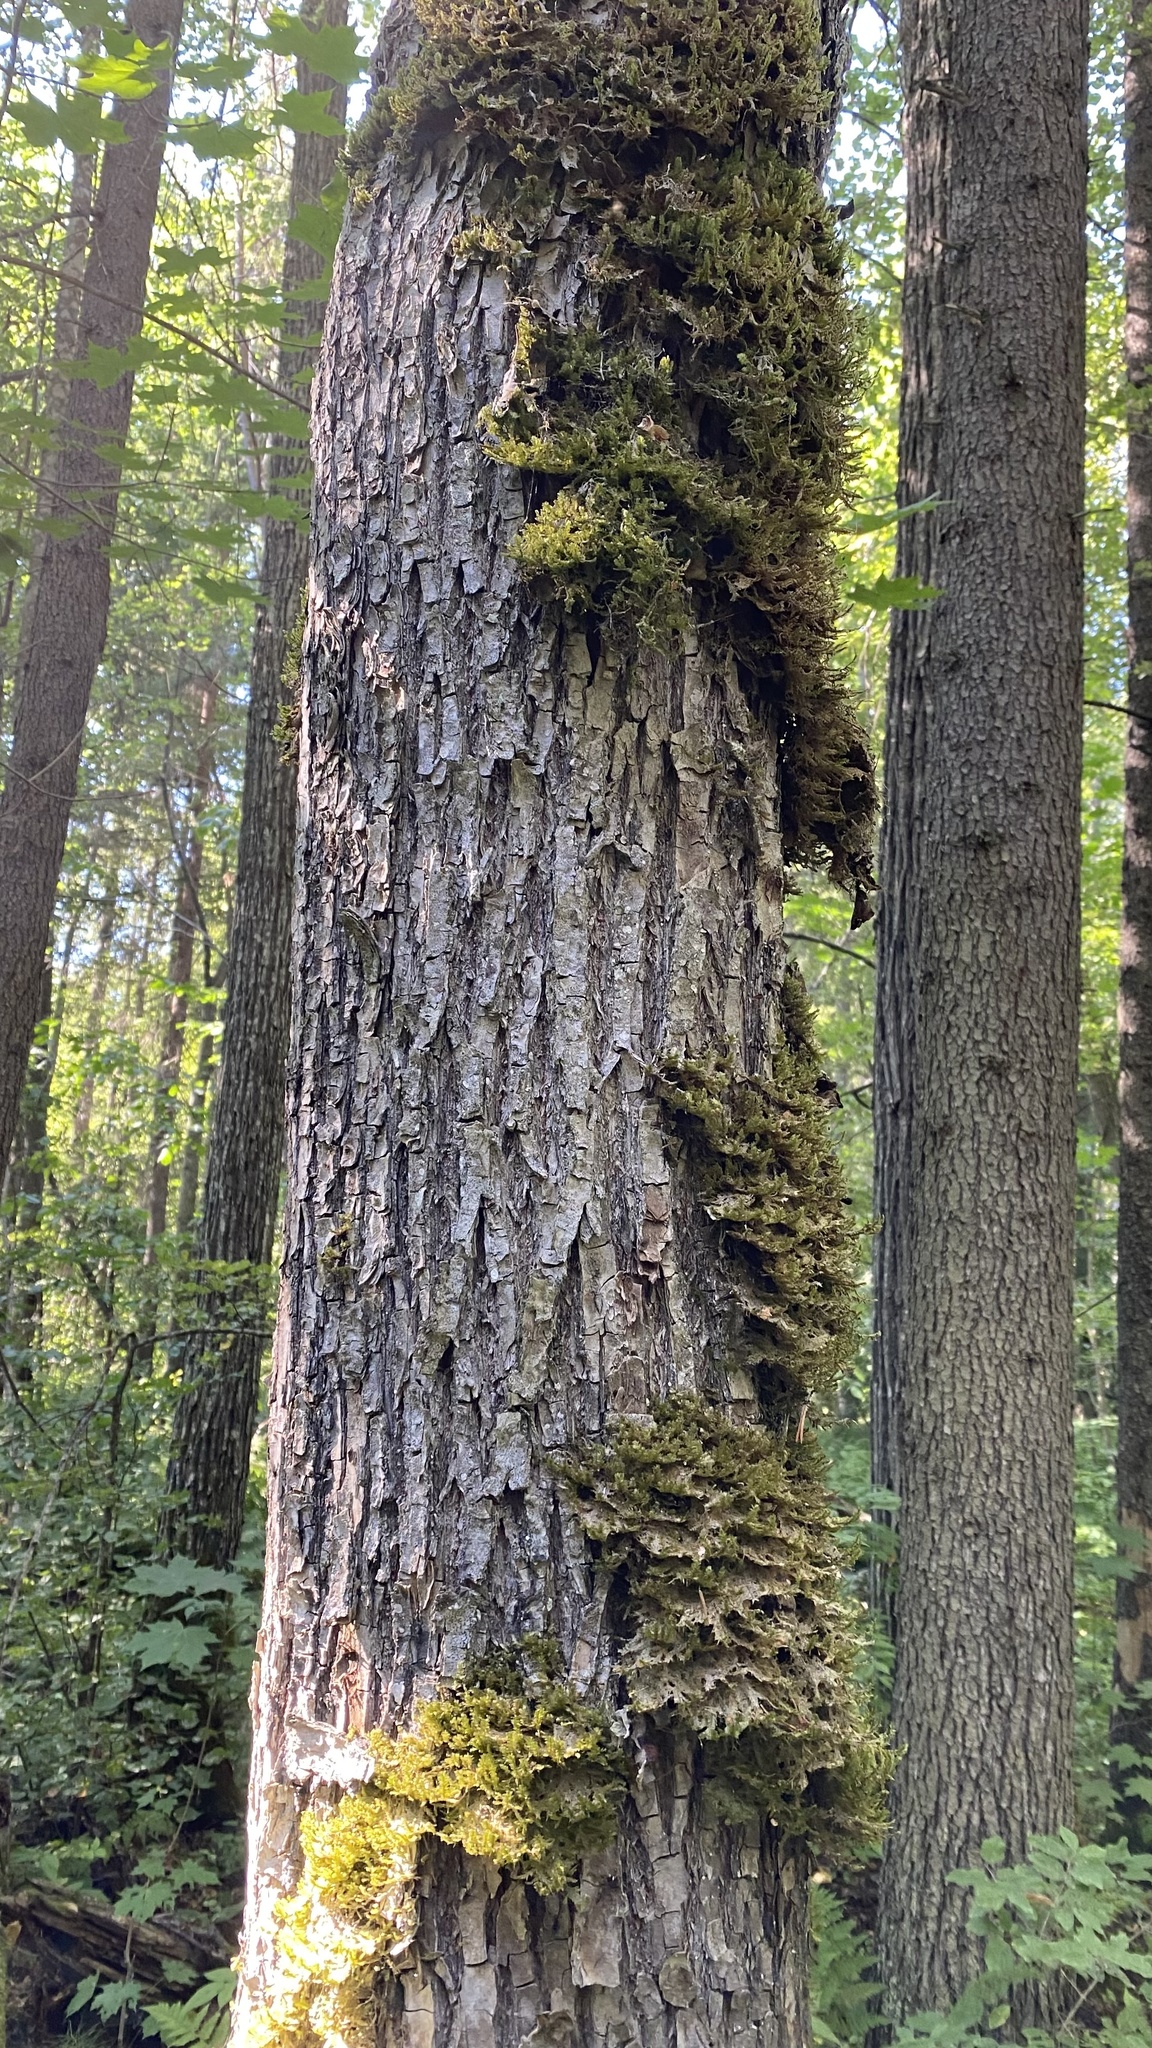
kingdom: Plantae
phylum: Bryophyta
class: Bryopsida
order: Hypnales
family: Neckeraceae
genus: Neckera
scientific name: Neckera pennata
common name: Feathery neckera
